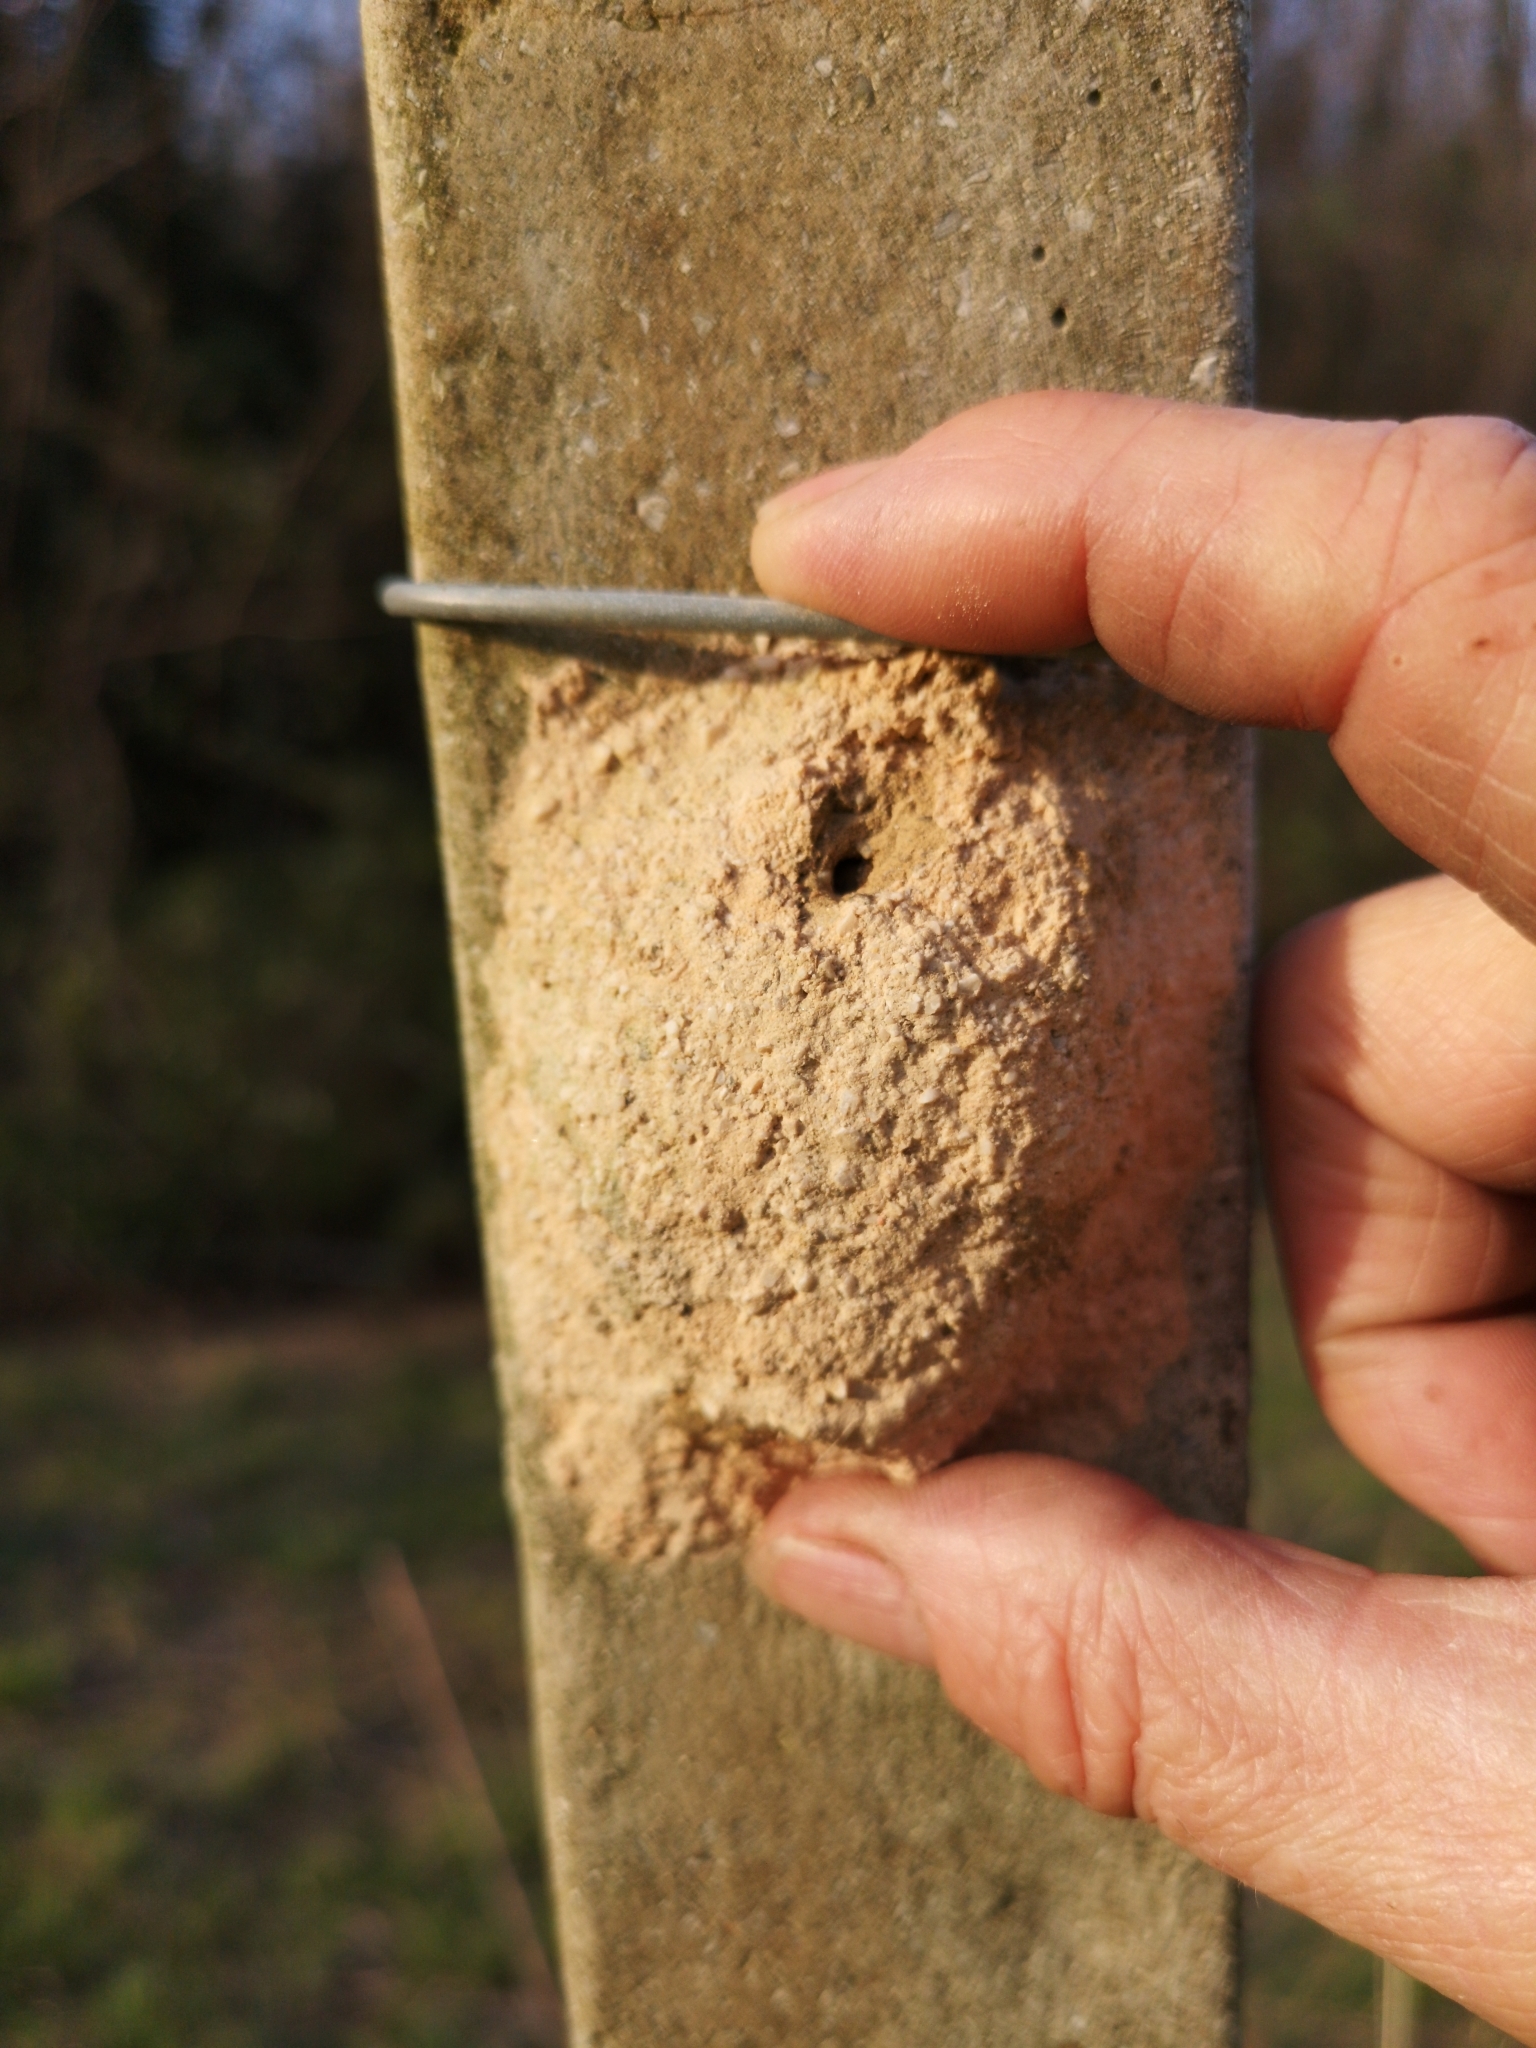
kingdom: Animalia
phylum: Arthropoda
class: Insecta
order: Hymenoptera
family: Eumenidae
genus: Delta
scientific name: Delta unguiculatum
